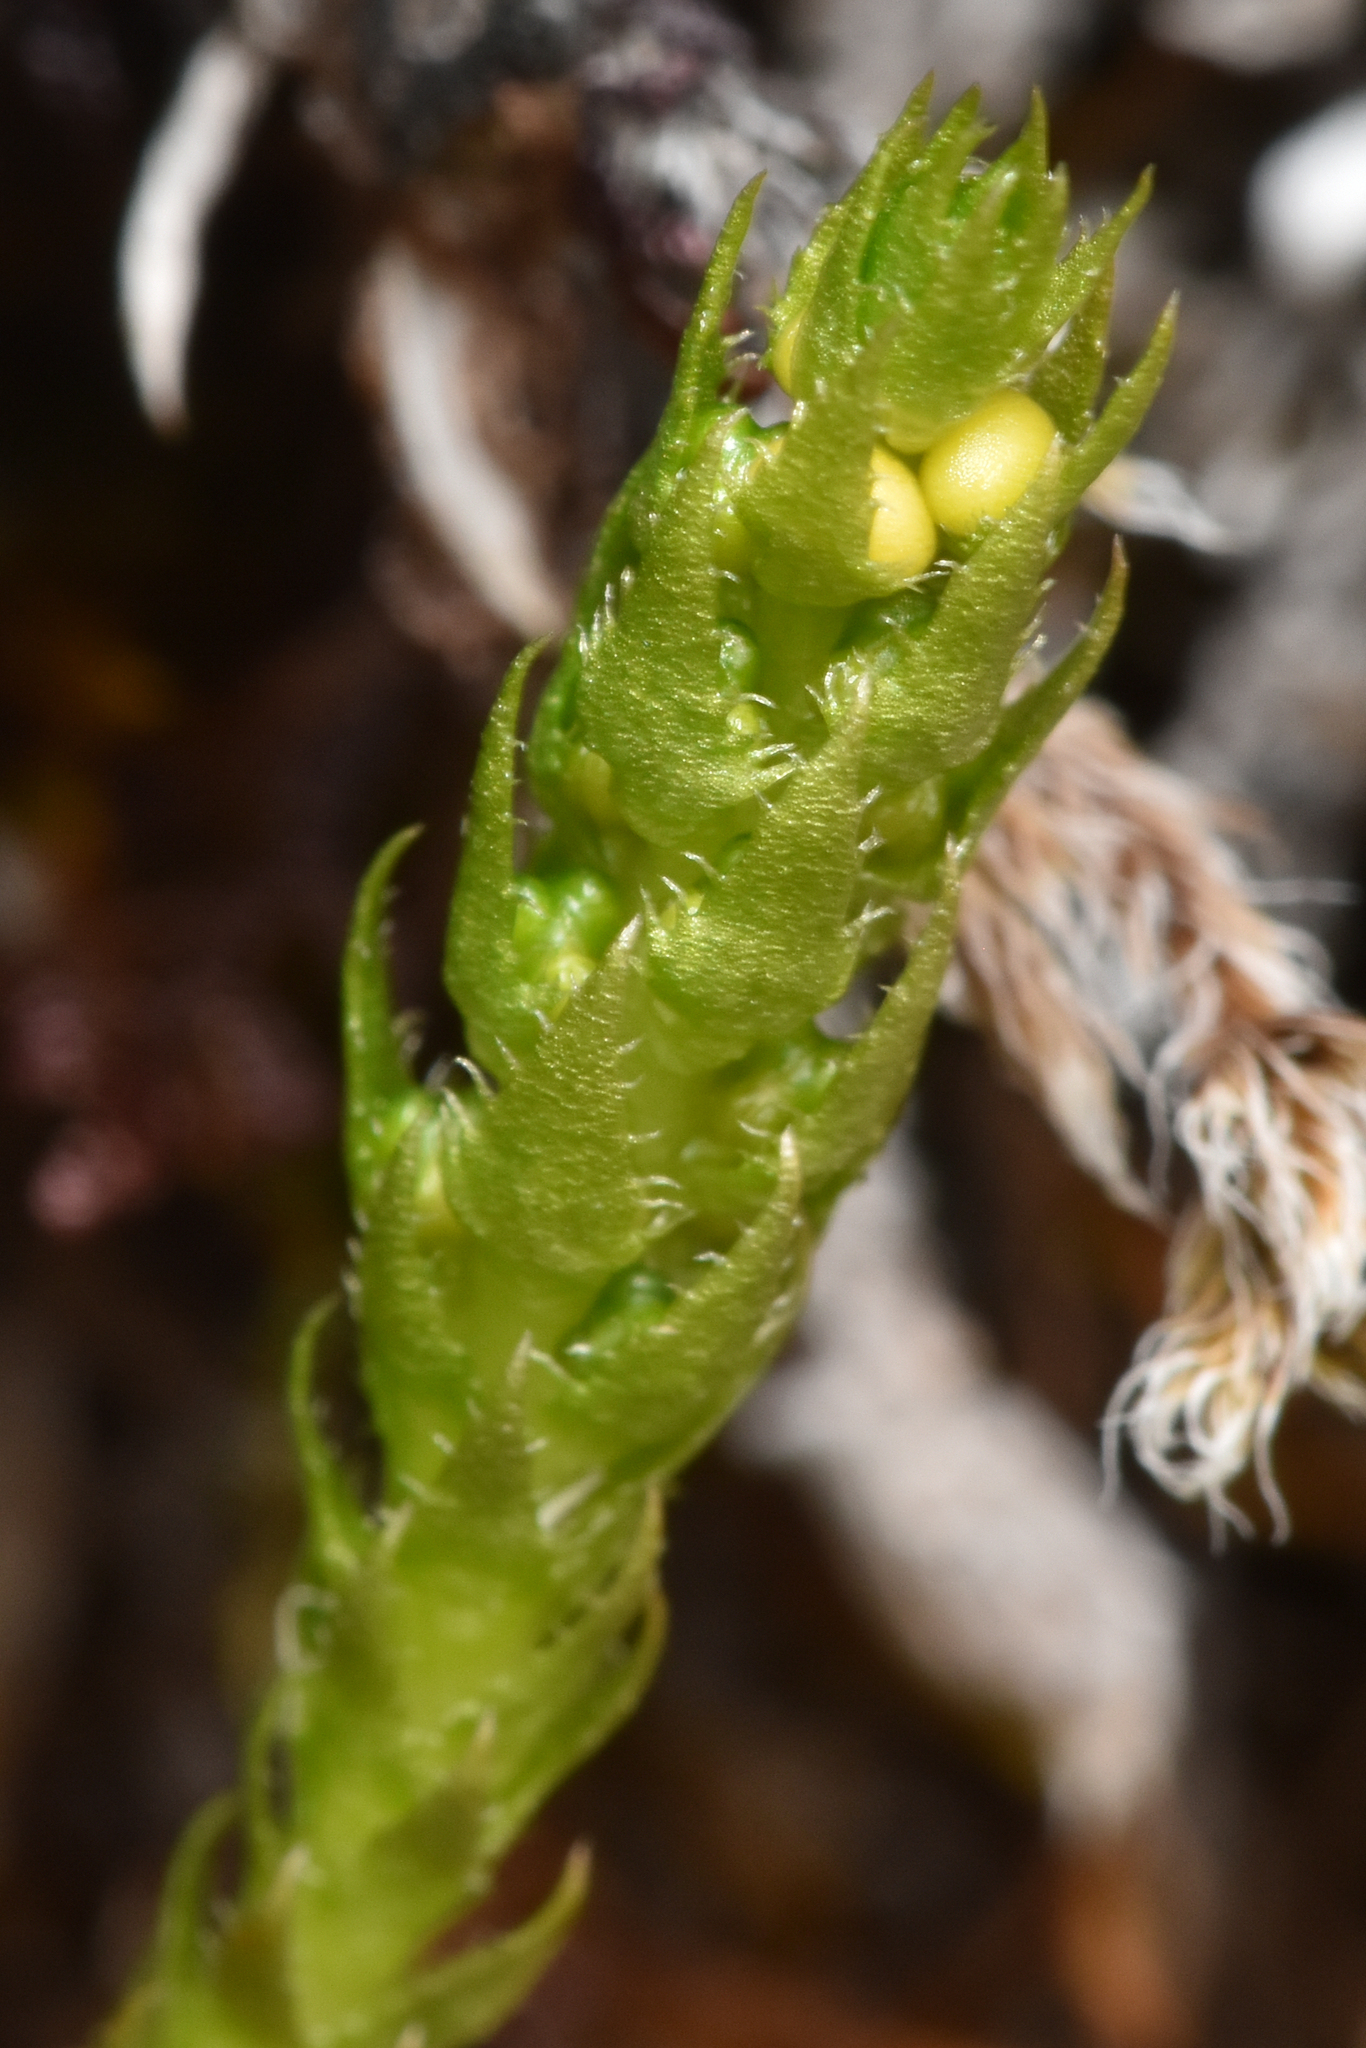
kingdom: Plantae
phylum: Tracheophyta
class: Lycopodiopsida
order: Selaginellales
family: Selaginellaceae
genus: Selaginella
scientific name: Selaginella selaginoides
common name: Prickly mountain-moss
